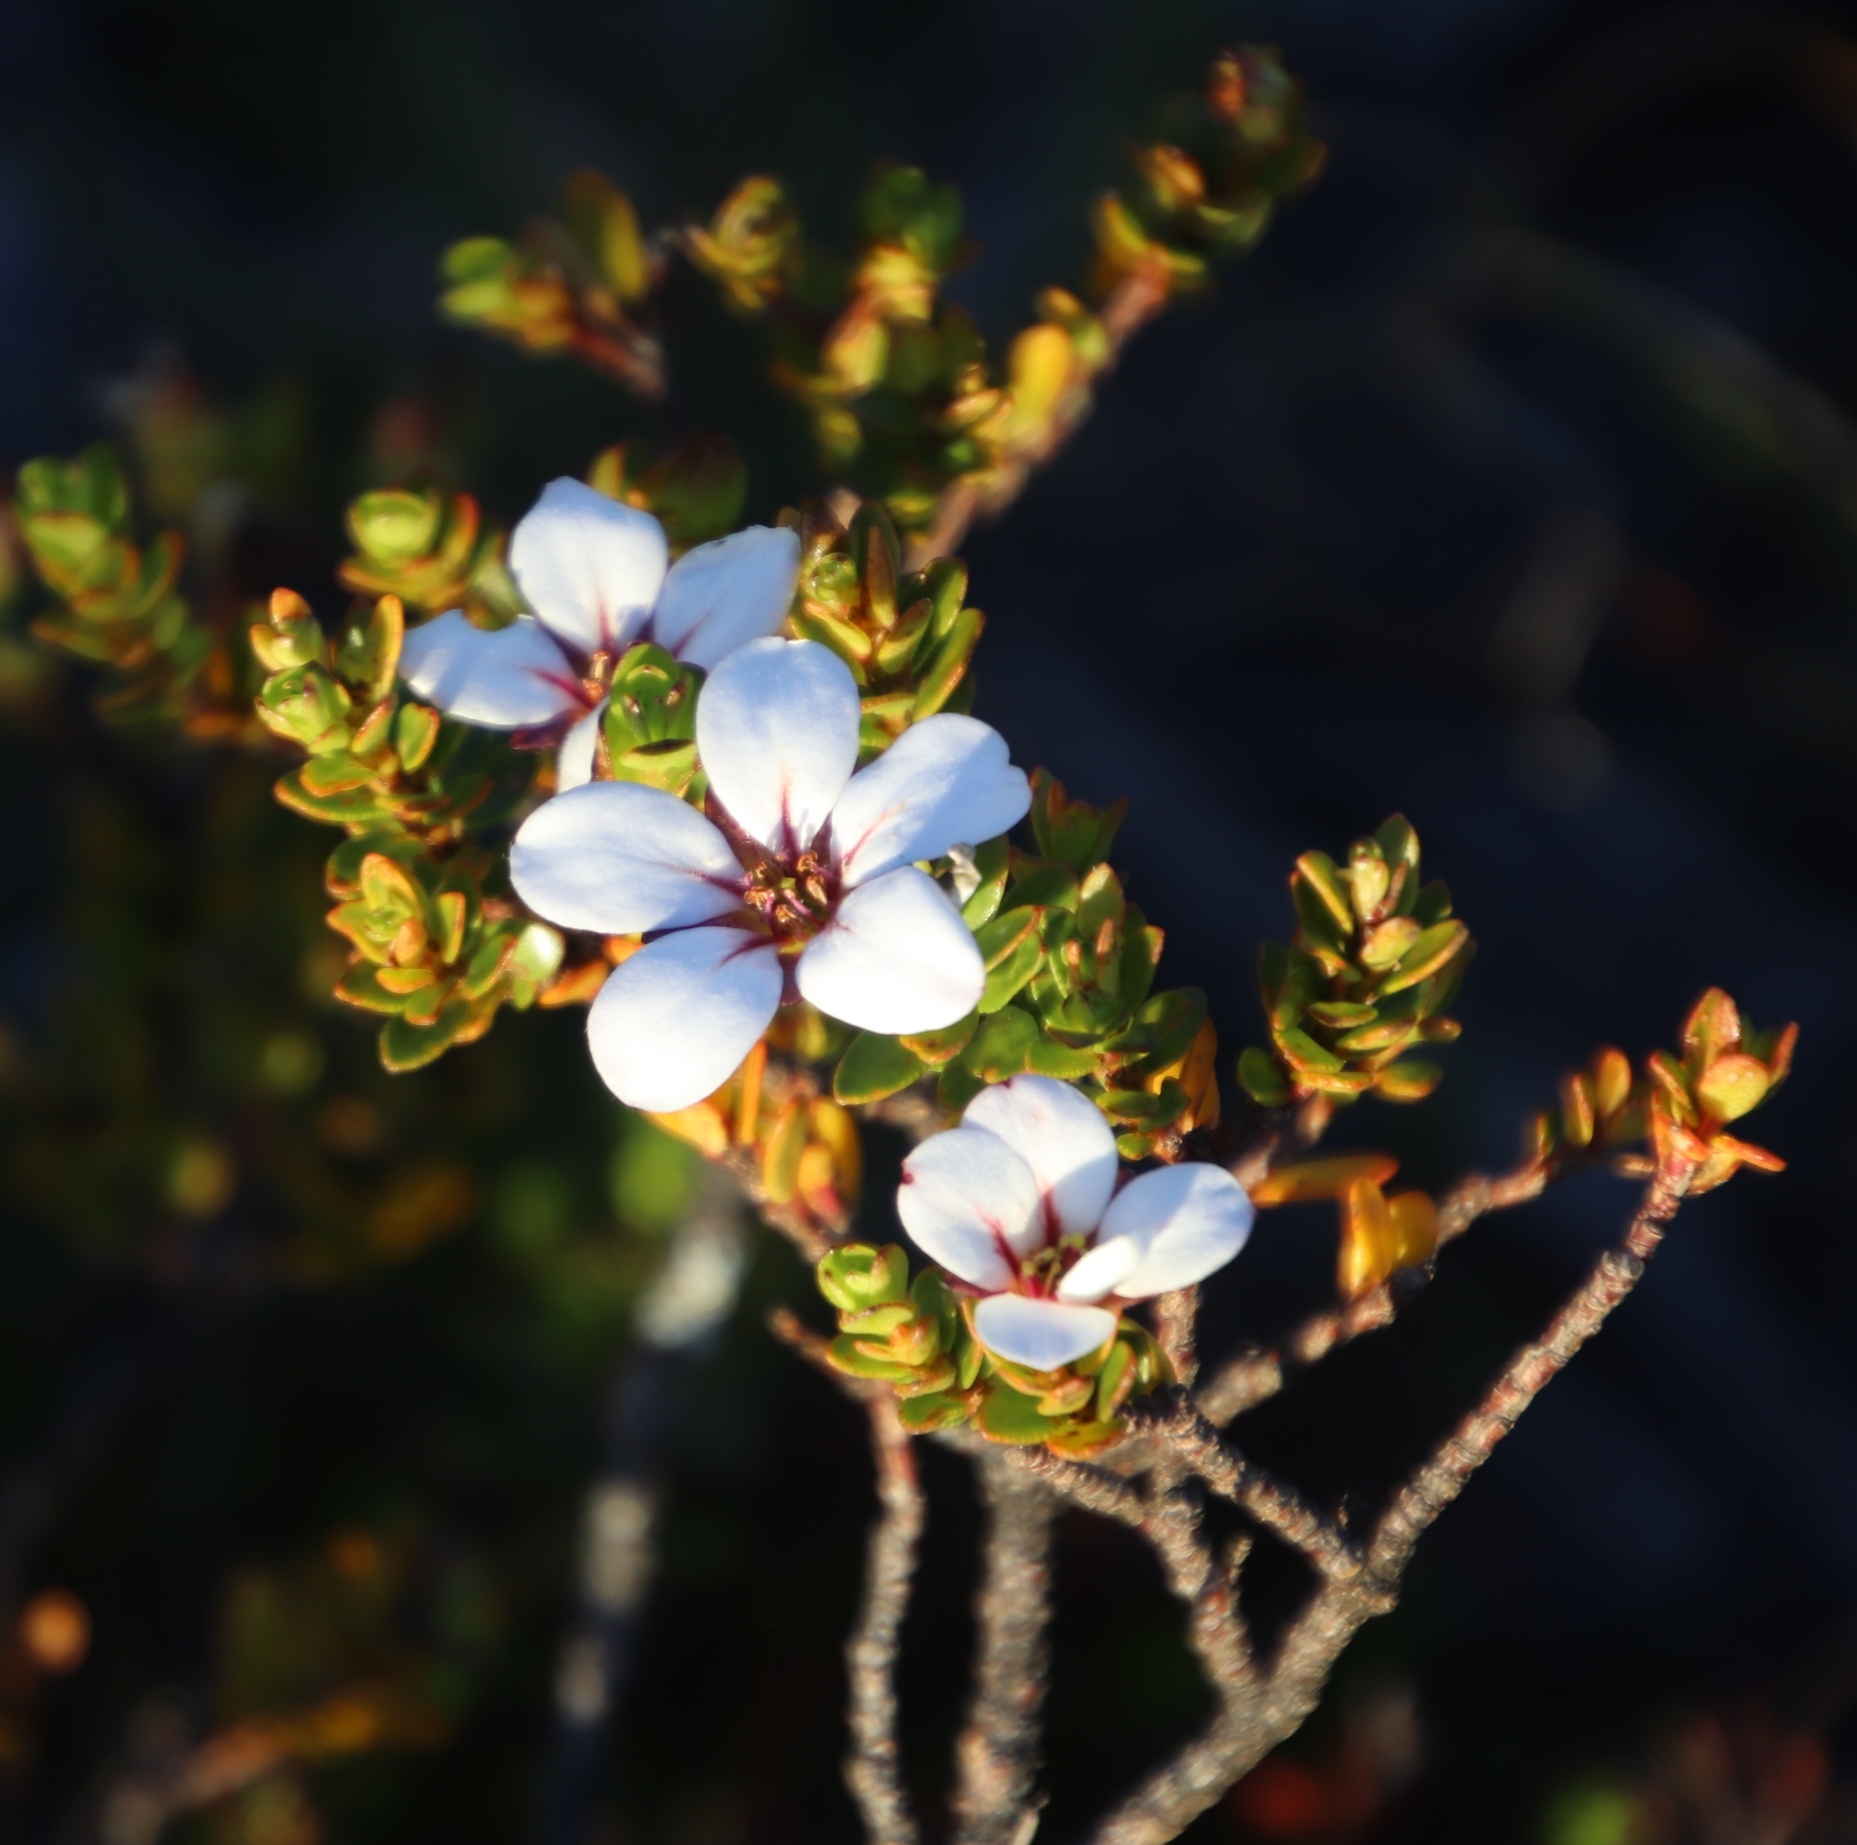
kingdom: Plantae
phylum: Tracheophyta
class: Magnoliopsida
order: Sapindales
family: Rutaceae
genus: Adenandra
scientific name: Adenandra villosa
